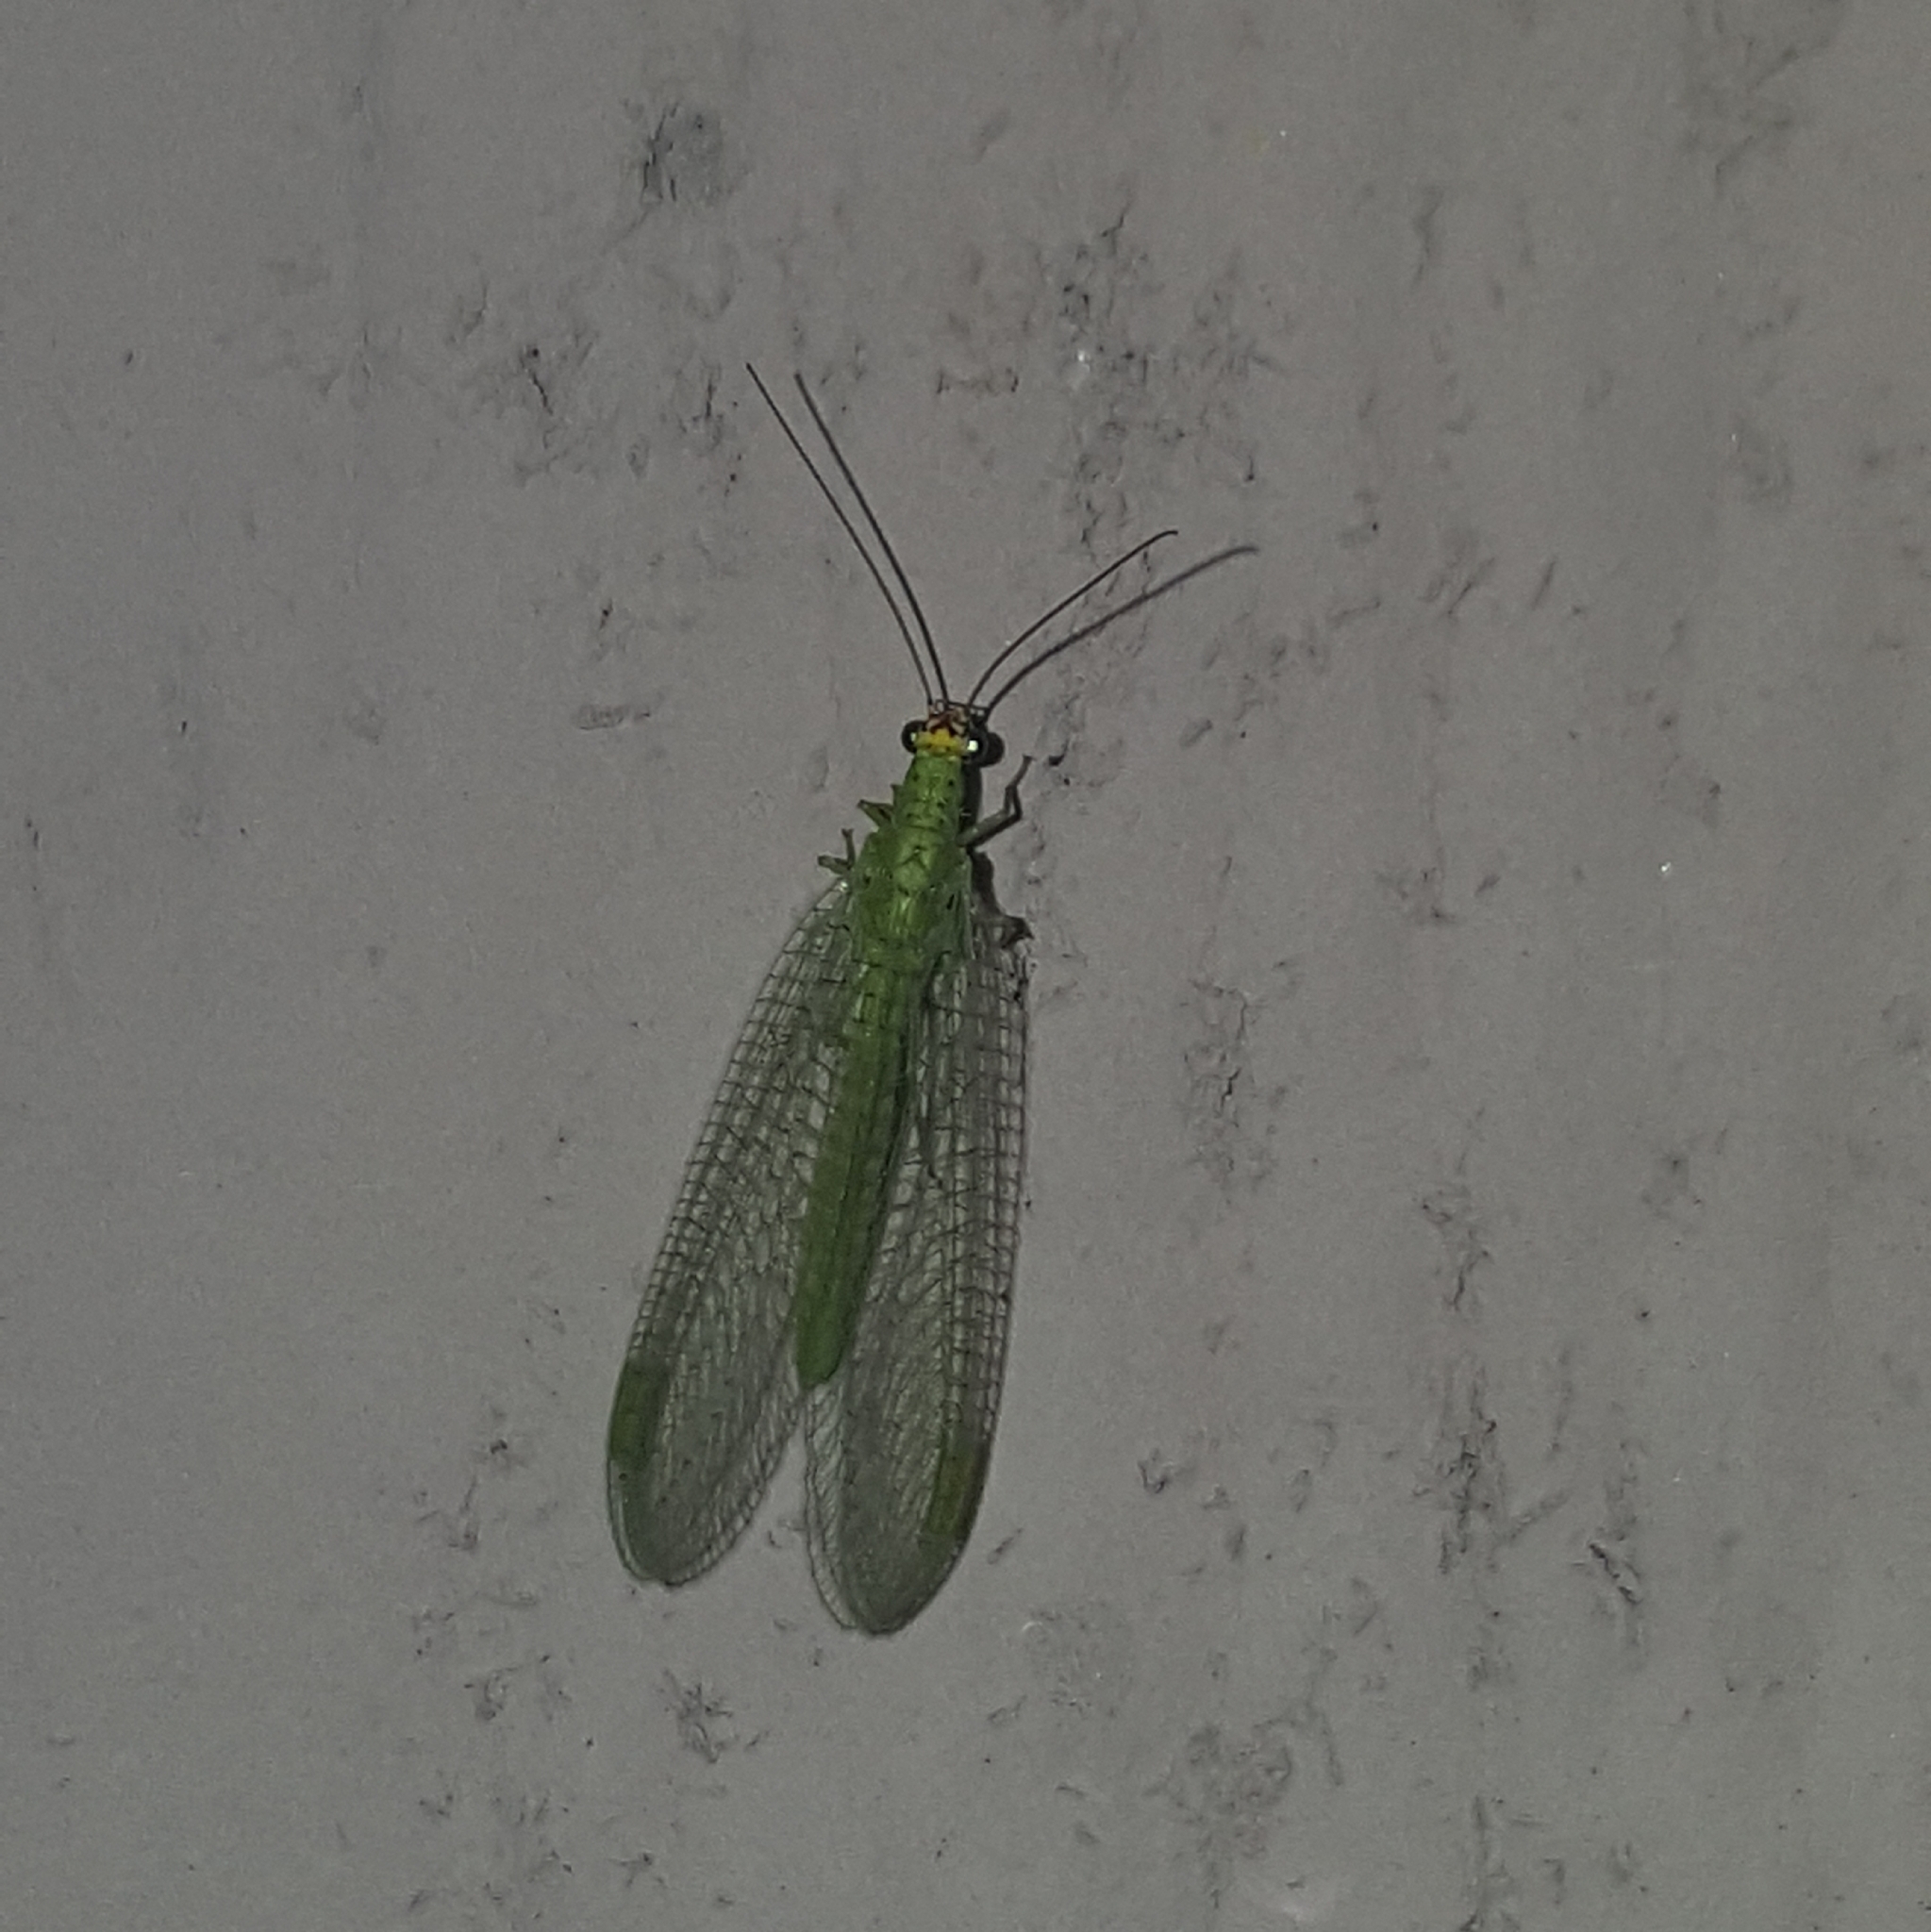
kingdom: Animalia
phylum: Arthropoda
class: Insecta
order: Neuroptera
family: Chrysopidae
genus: Chrysopa
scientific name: Chrysopa oculata
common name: Golden-eyed lacewing
